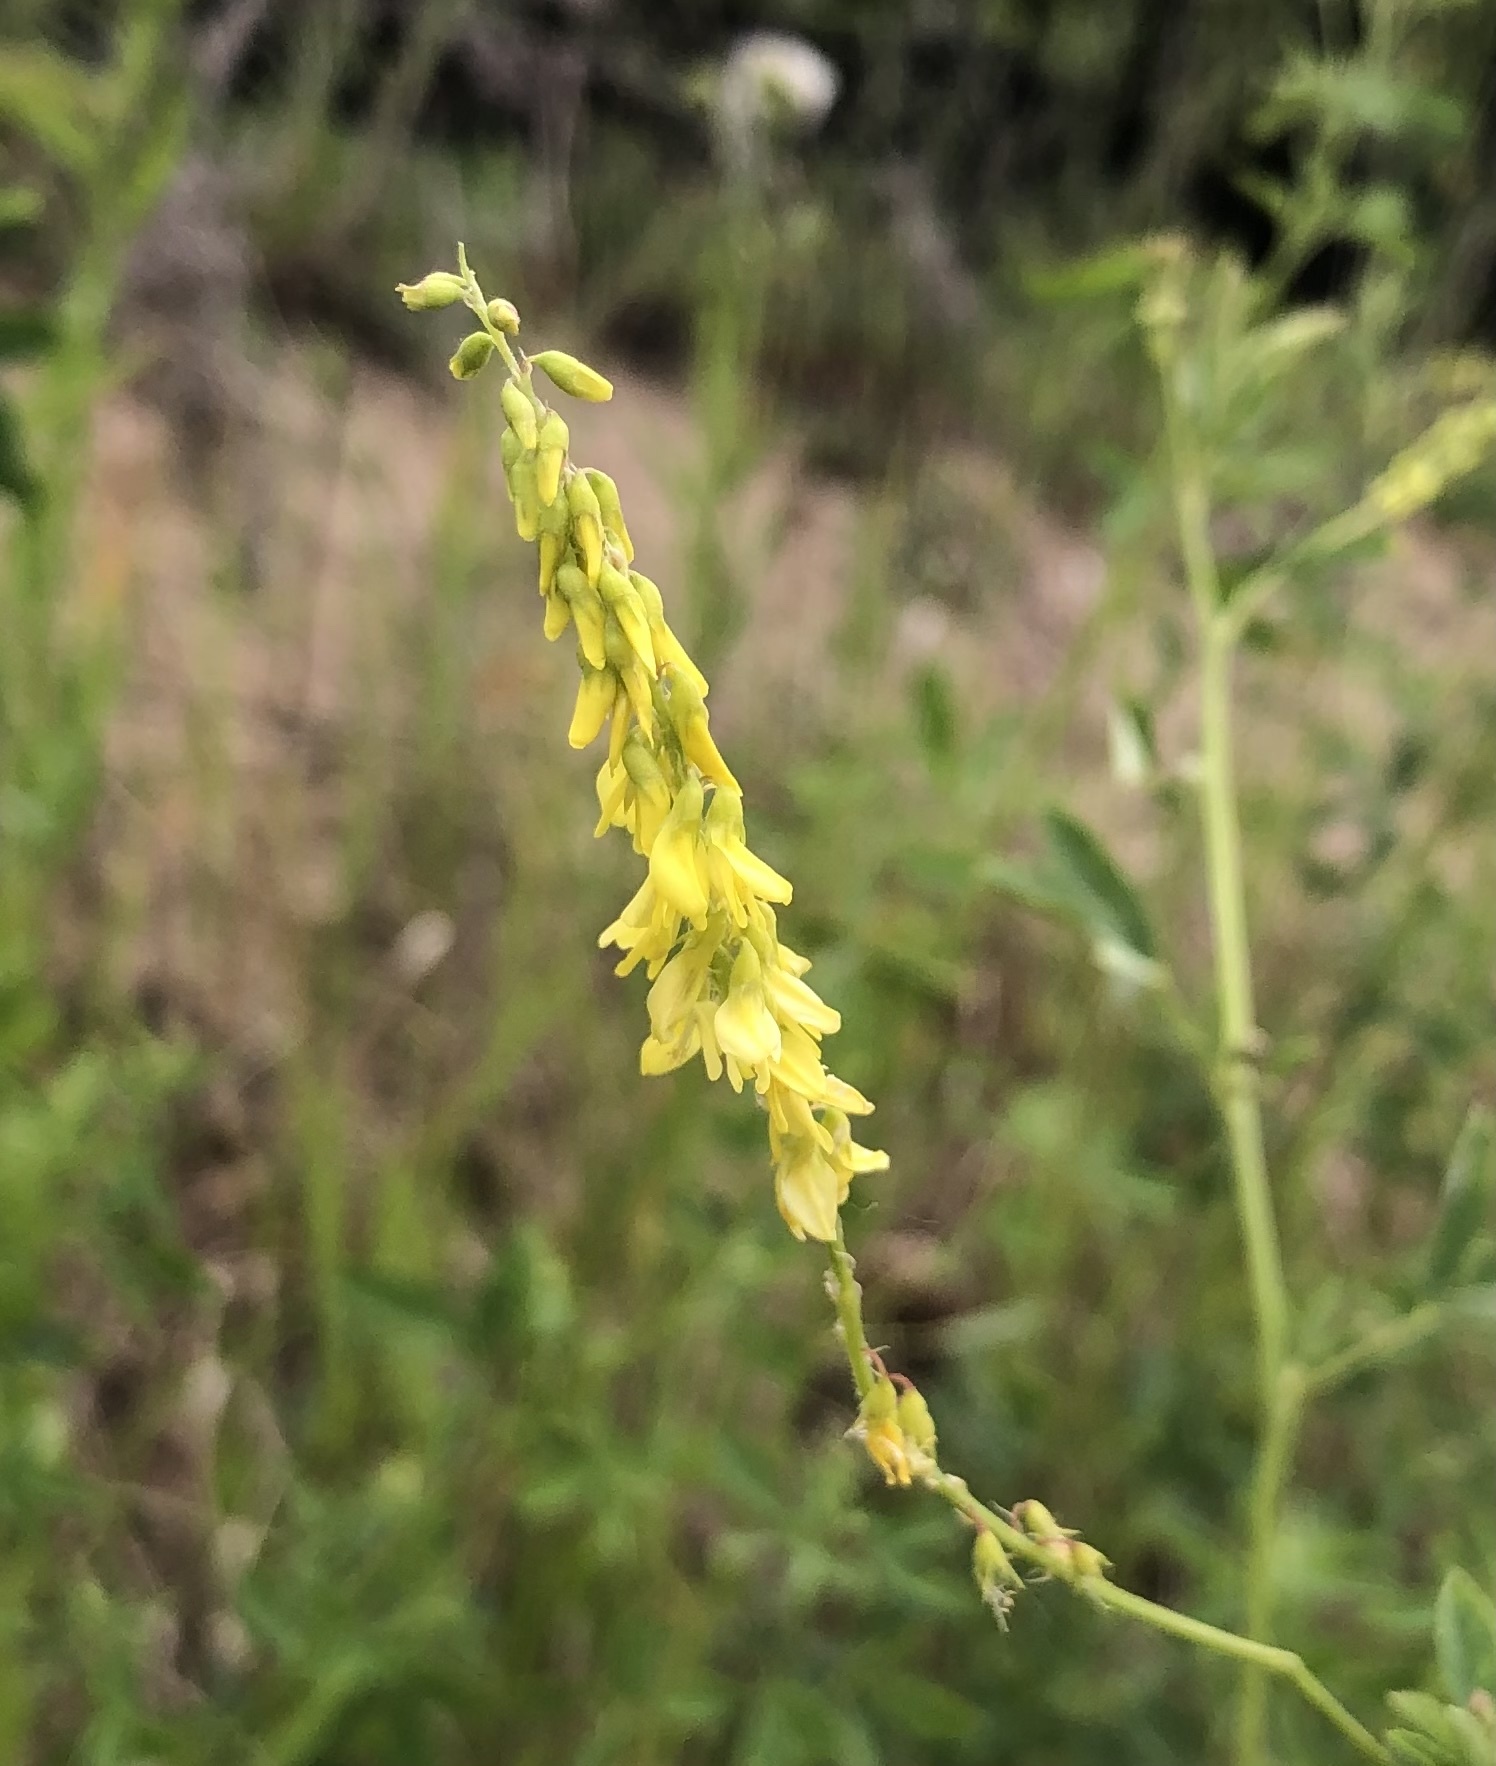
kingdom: Plantae
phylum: Tracheophyta
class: Magnoliopsida
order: Fabales
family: Fabaceae
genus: Melilotus
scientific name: Melilotus officinalis
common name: Sweetclover
